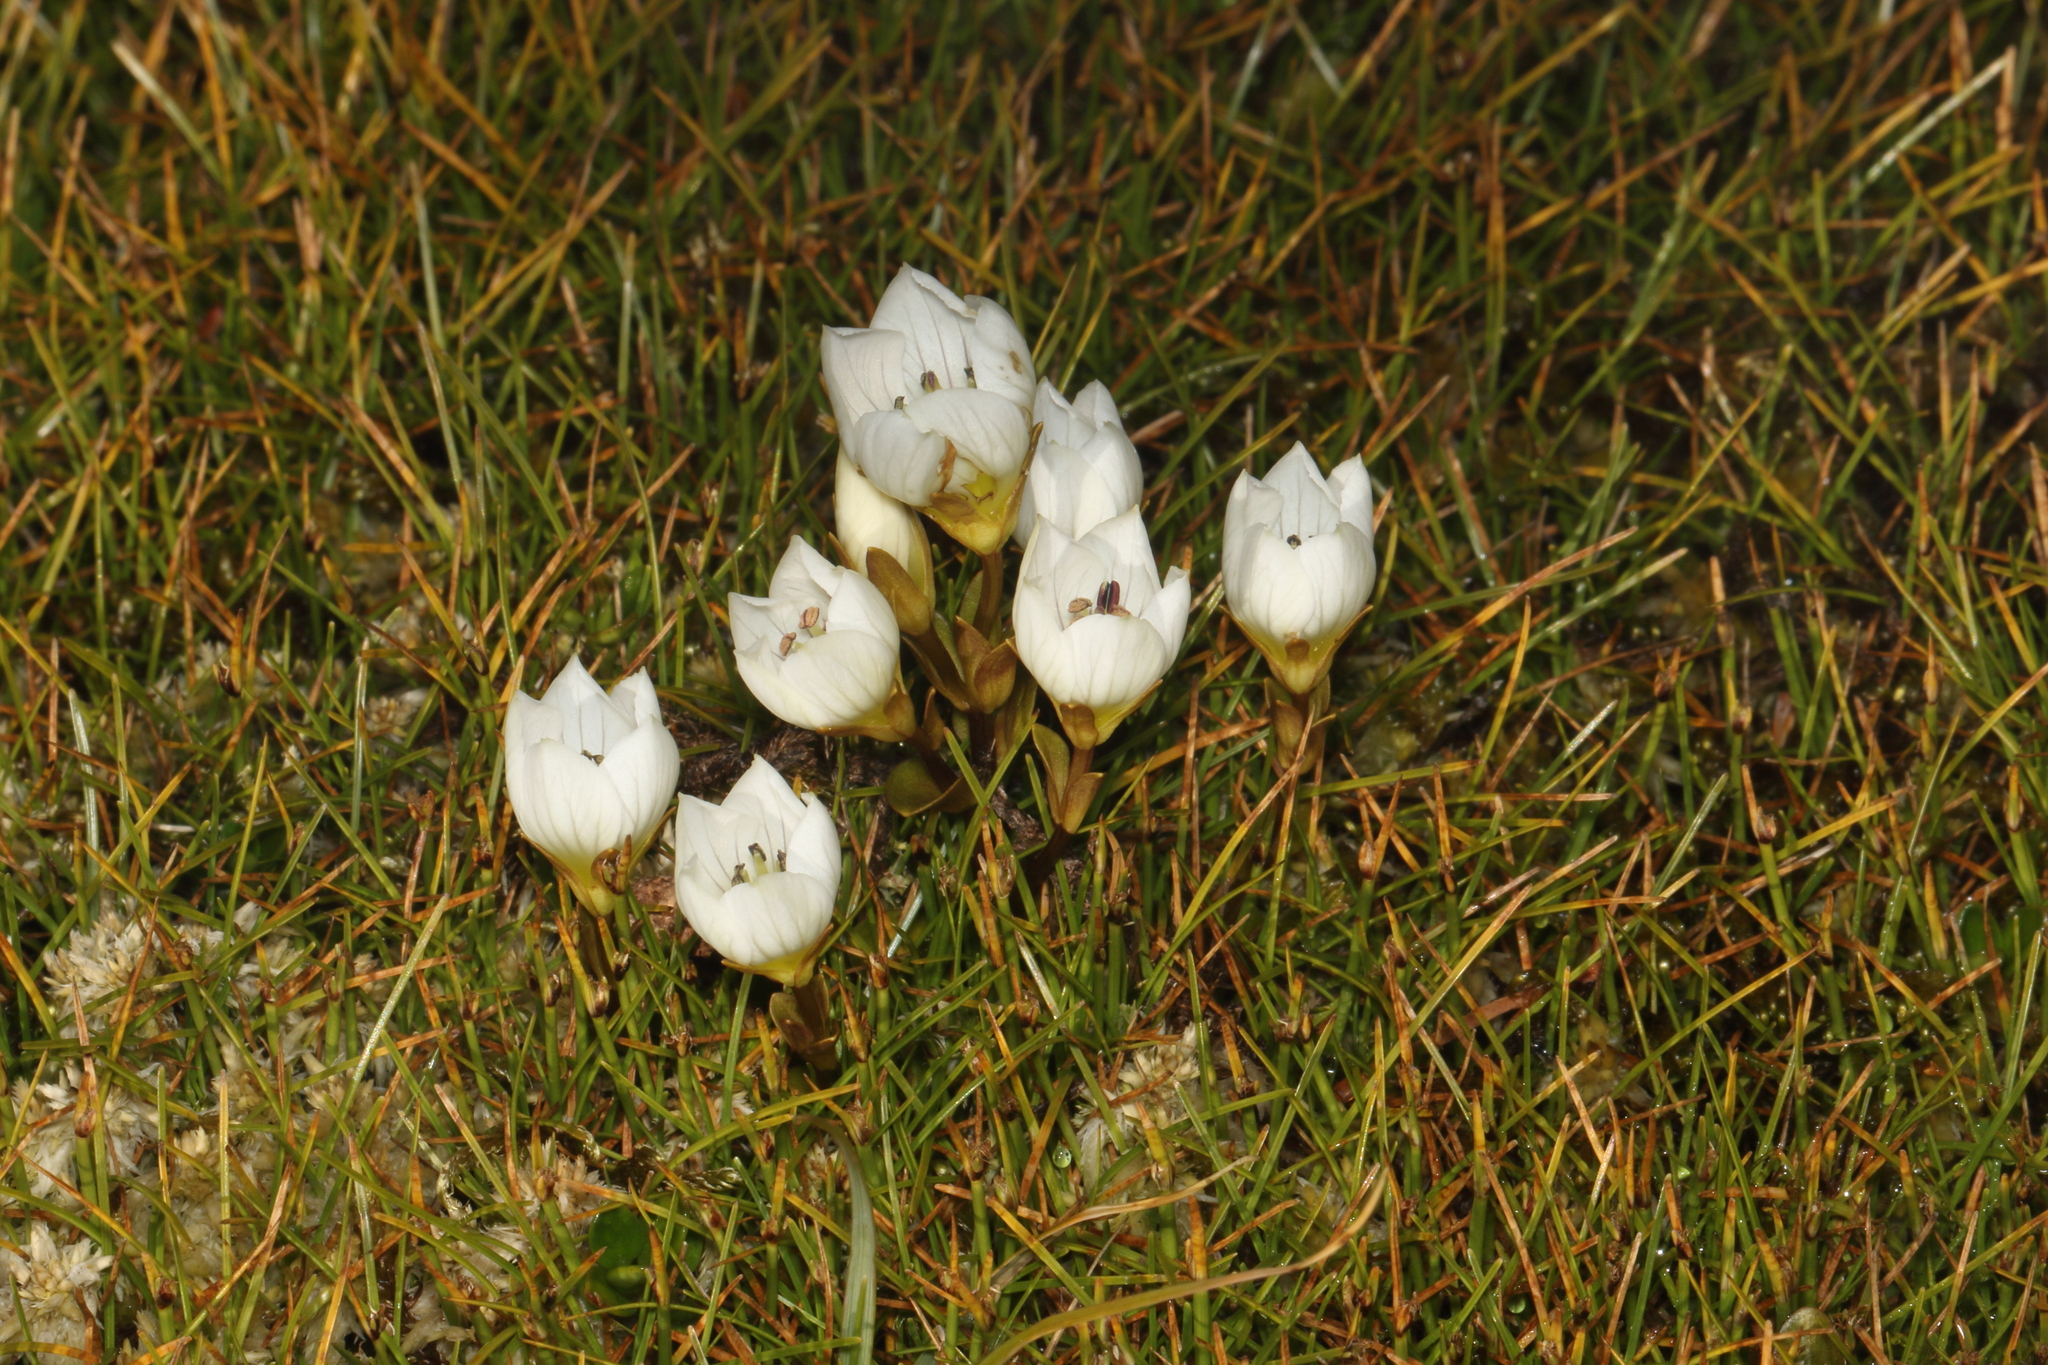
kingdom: Plantae
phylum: Tracheophyta
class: Magnoliopsida
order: Gentianales
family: Gentianaceae
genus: Gentianella
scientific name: Gentianella bellidifolia
